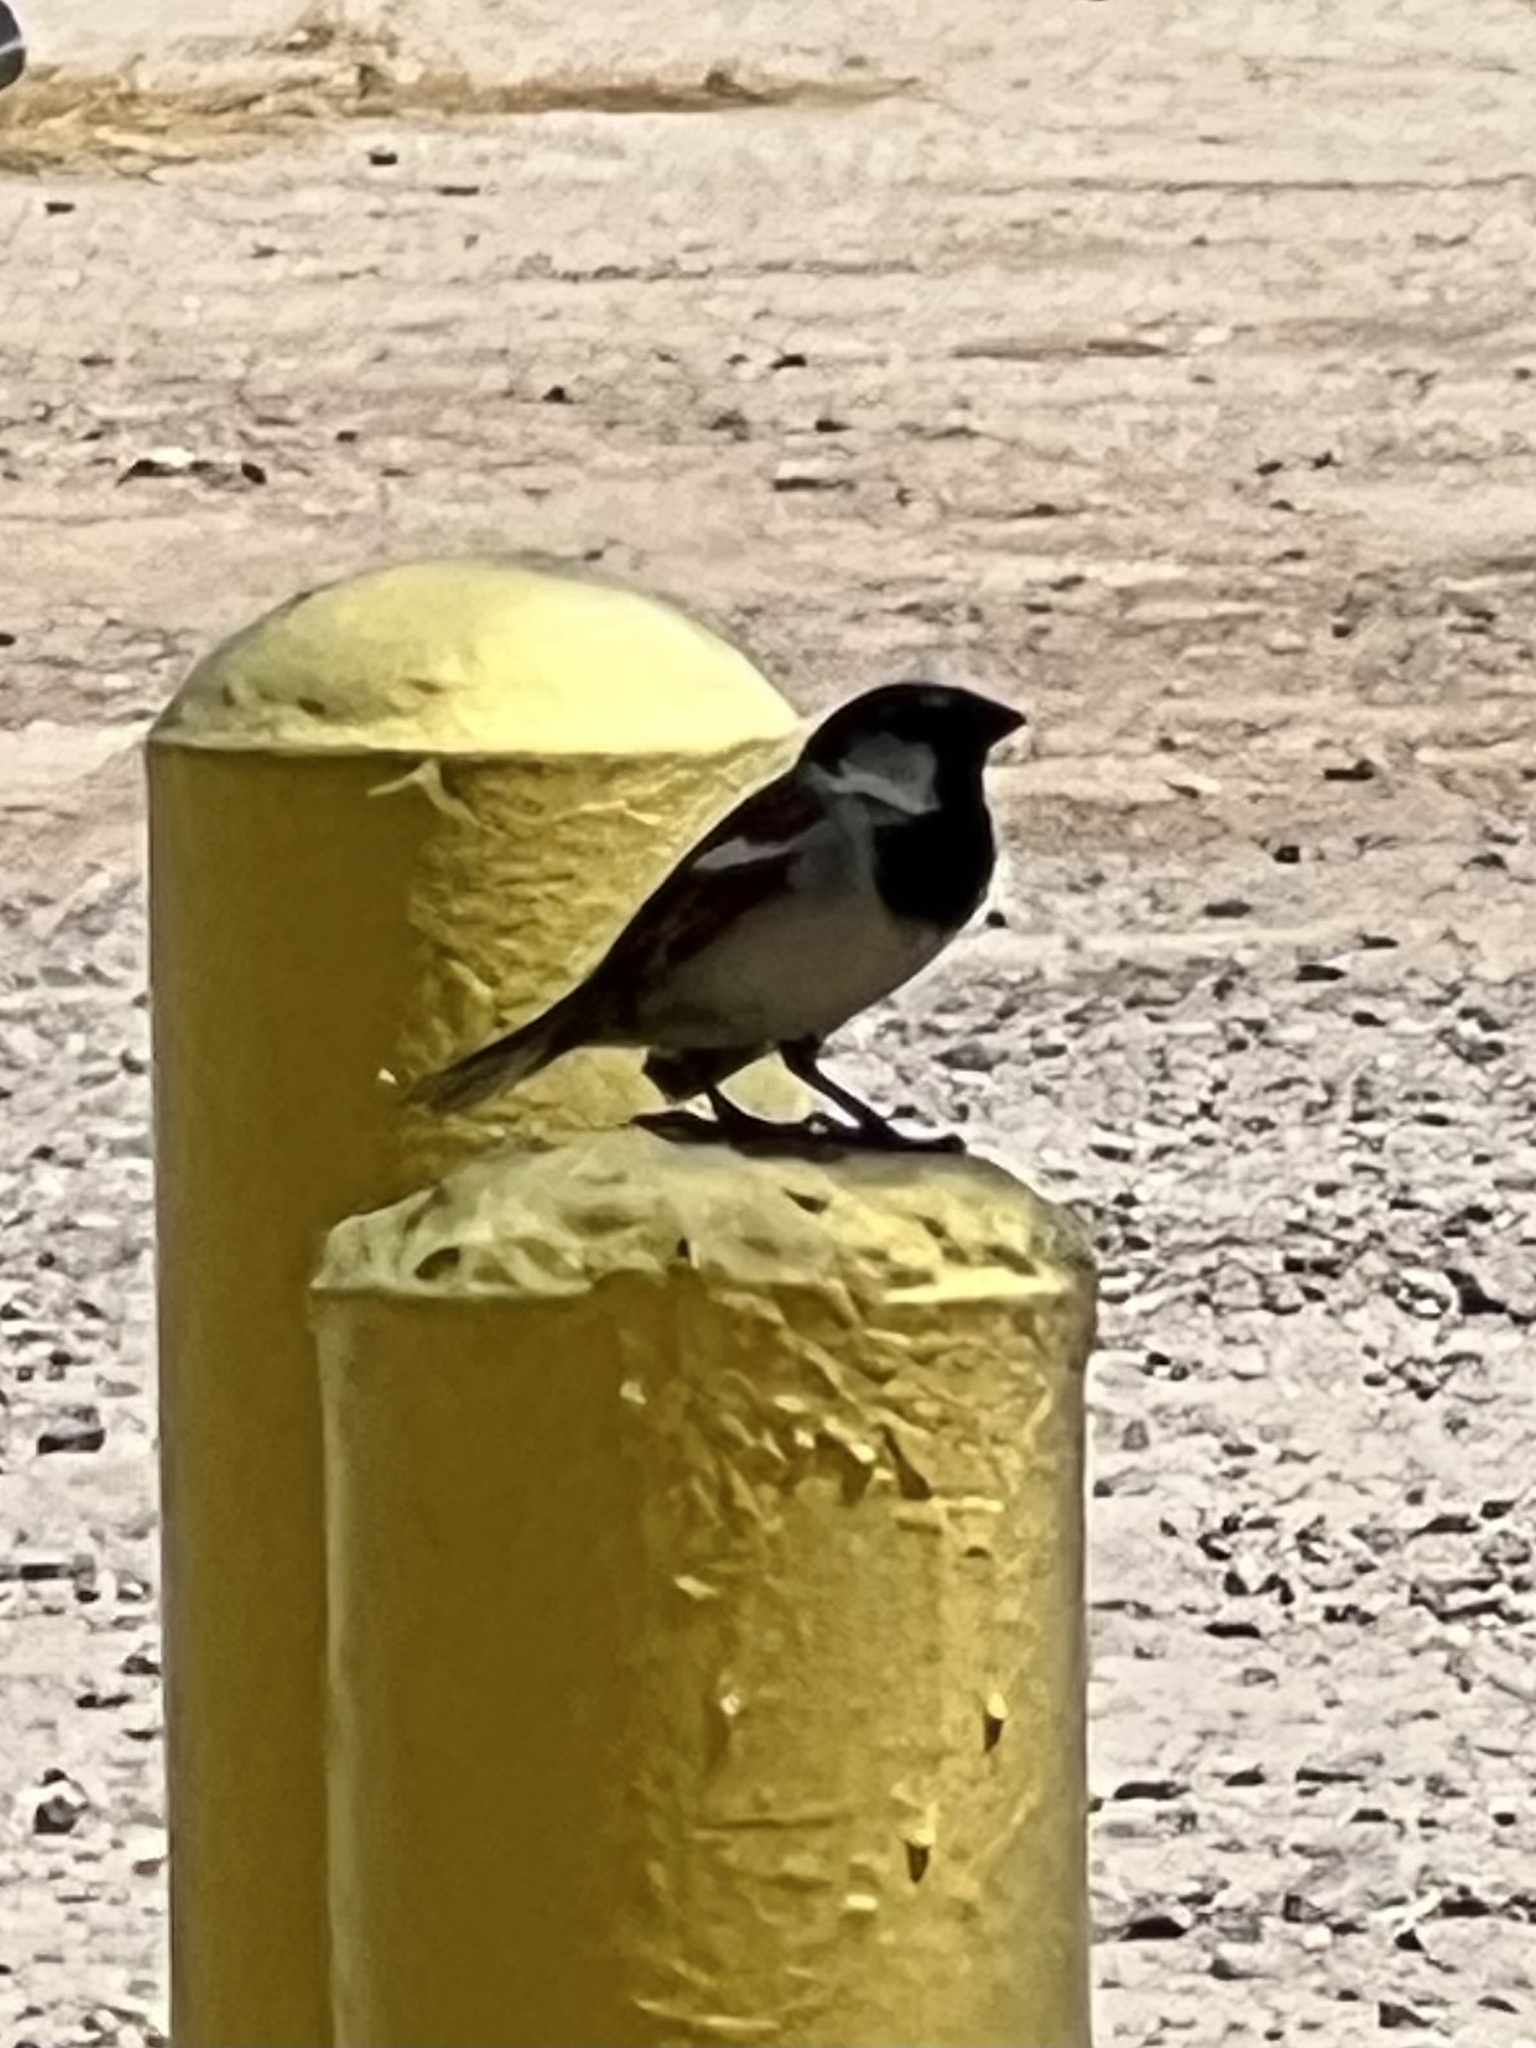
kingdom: Animalia
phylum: Chordata
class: Aves
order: Passeriformes
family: Passeridae
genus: Passer
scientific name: Passer domesticus
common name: House sparrow
